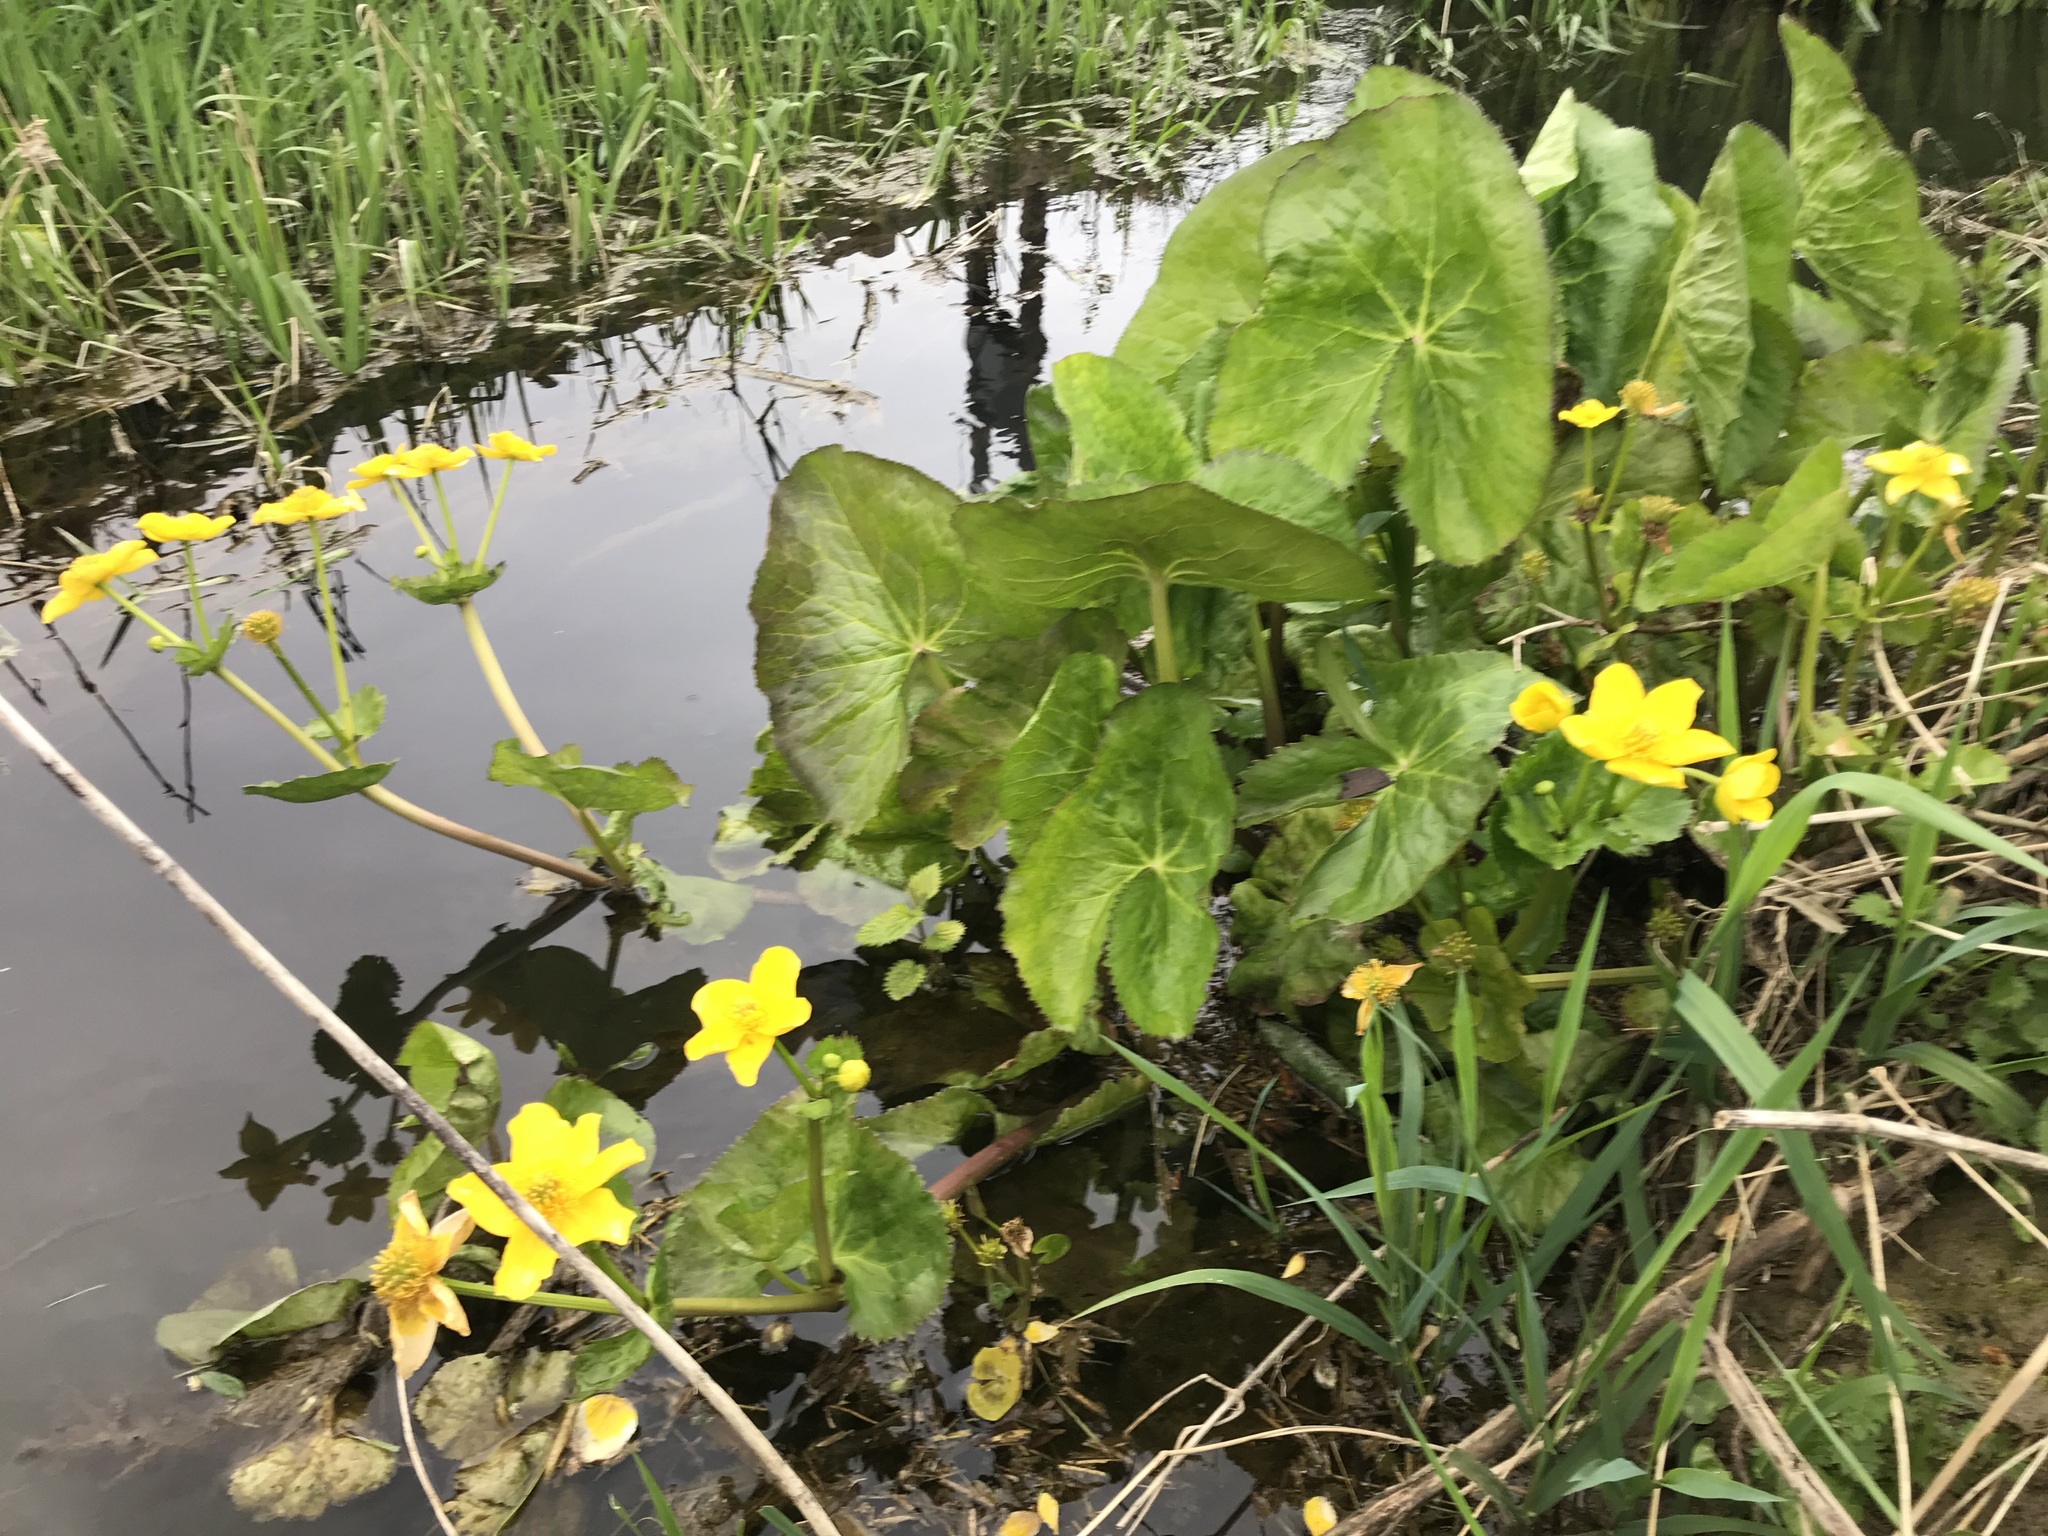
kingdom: Plantae
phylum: Tracheophyta
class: Magnoliopsida
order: Ranunculales
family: Ranunculaceae
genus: Caltha
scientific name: Caltha palustris
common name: Marsh marigold
